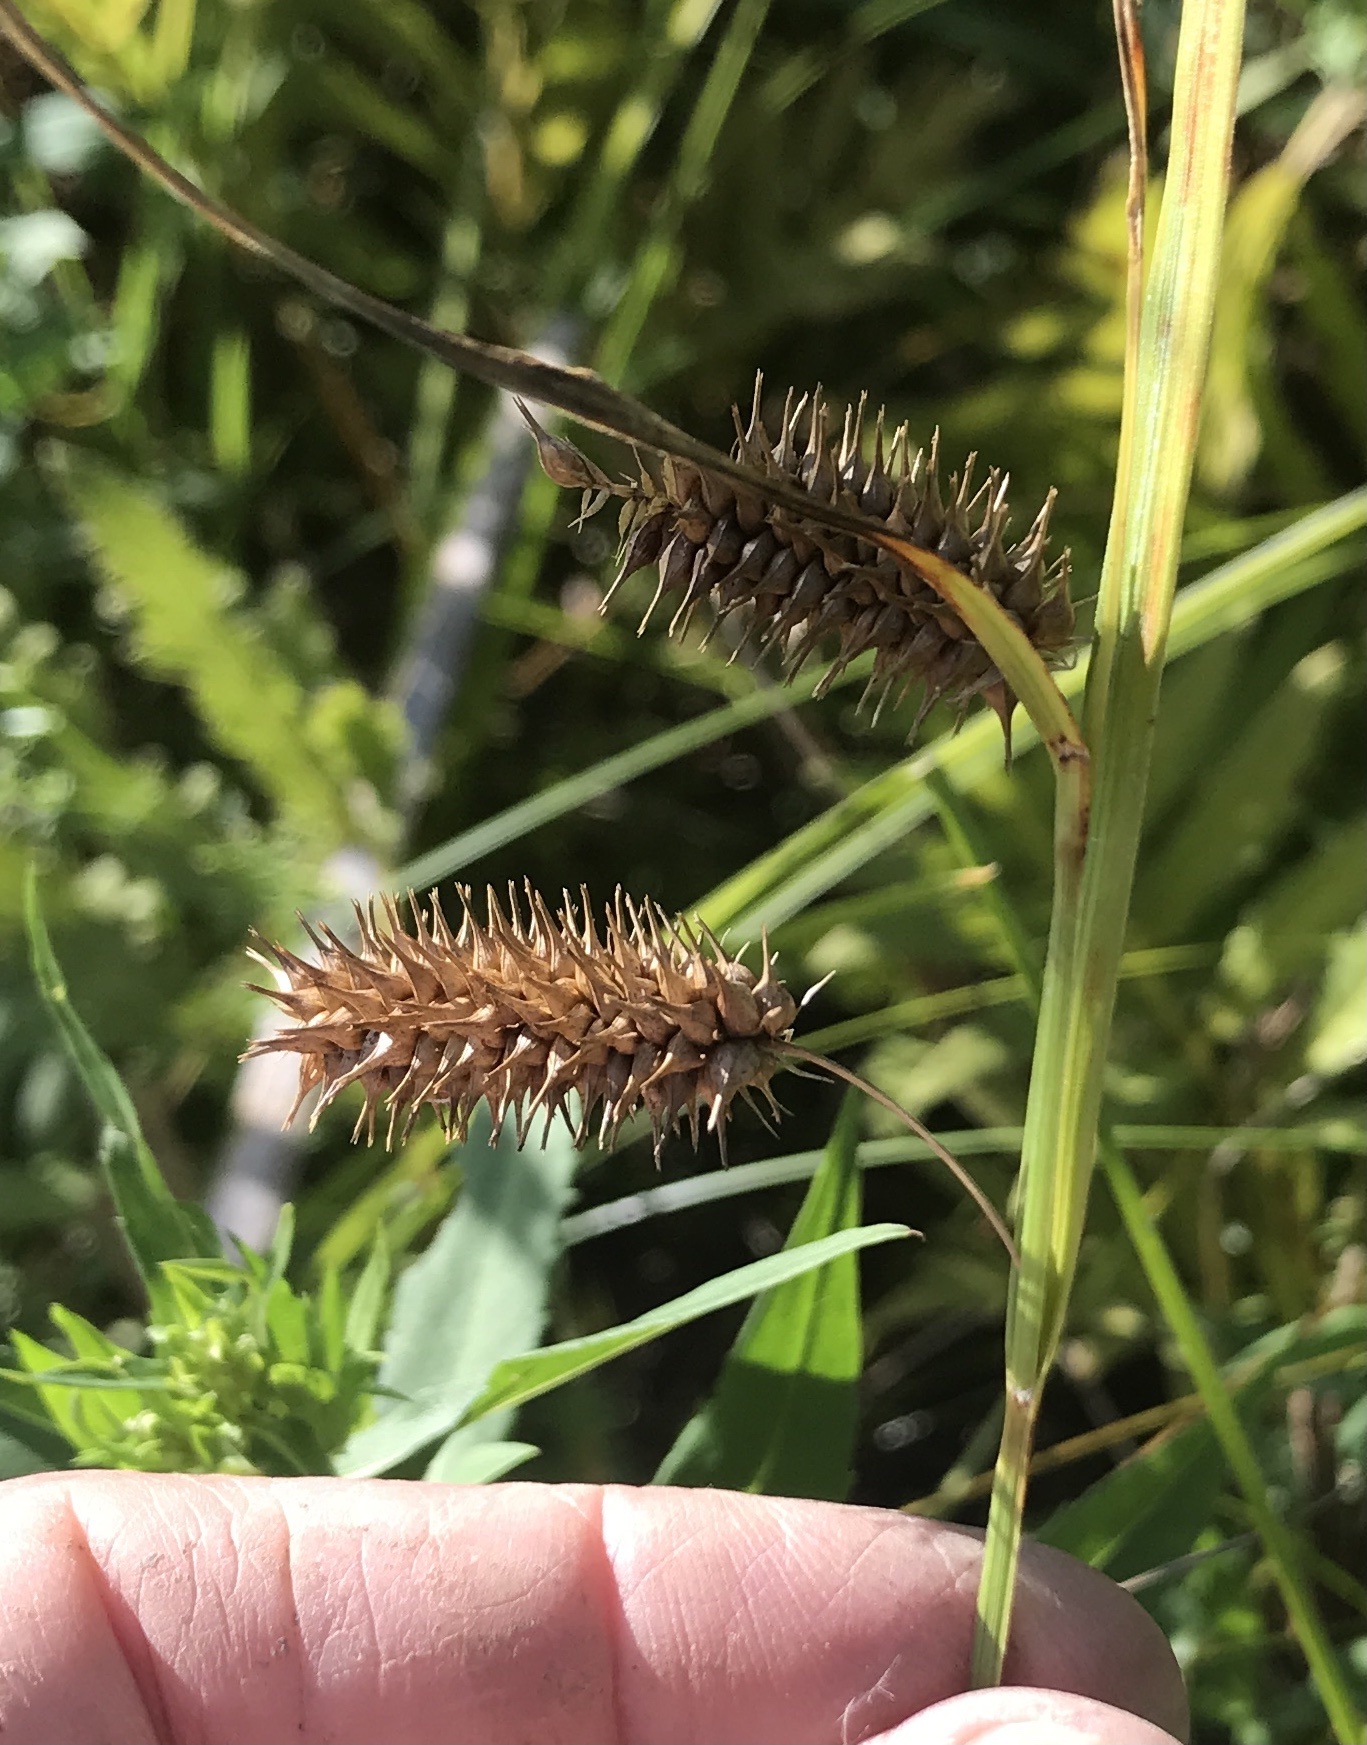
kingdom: Plantae
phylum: Tracheophyta
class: Liliopsida
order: Poales
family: Cyperaceae
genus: Carex
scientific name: Carex hystericina
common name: Bottlebrush sedge
